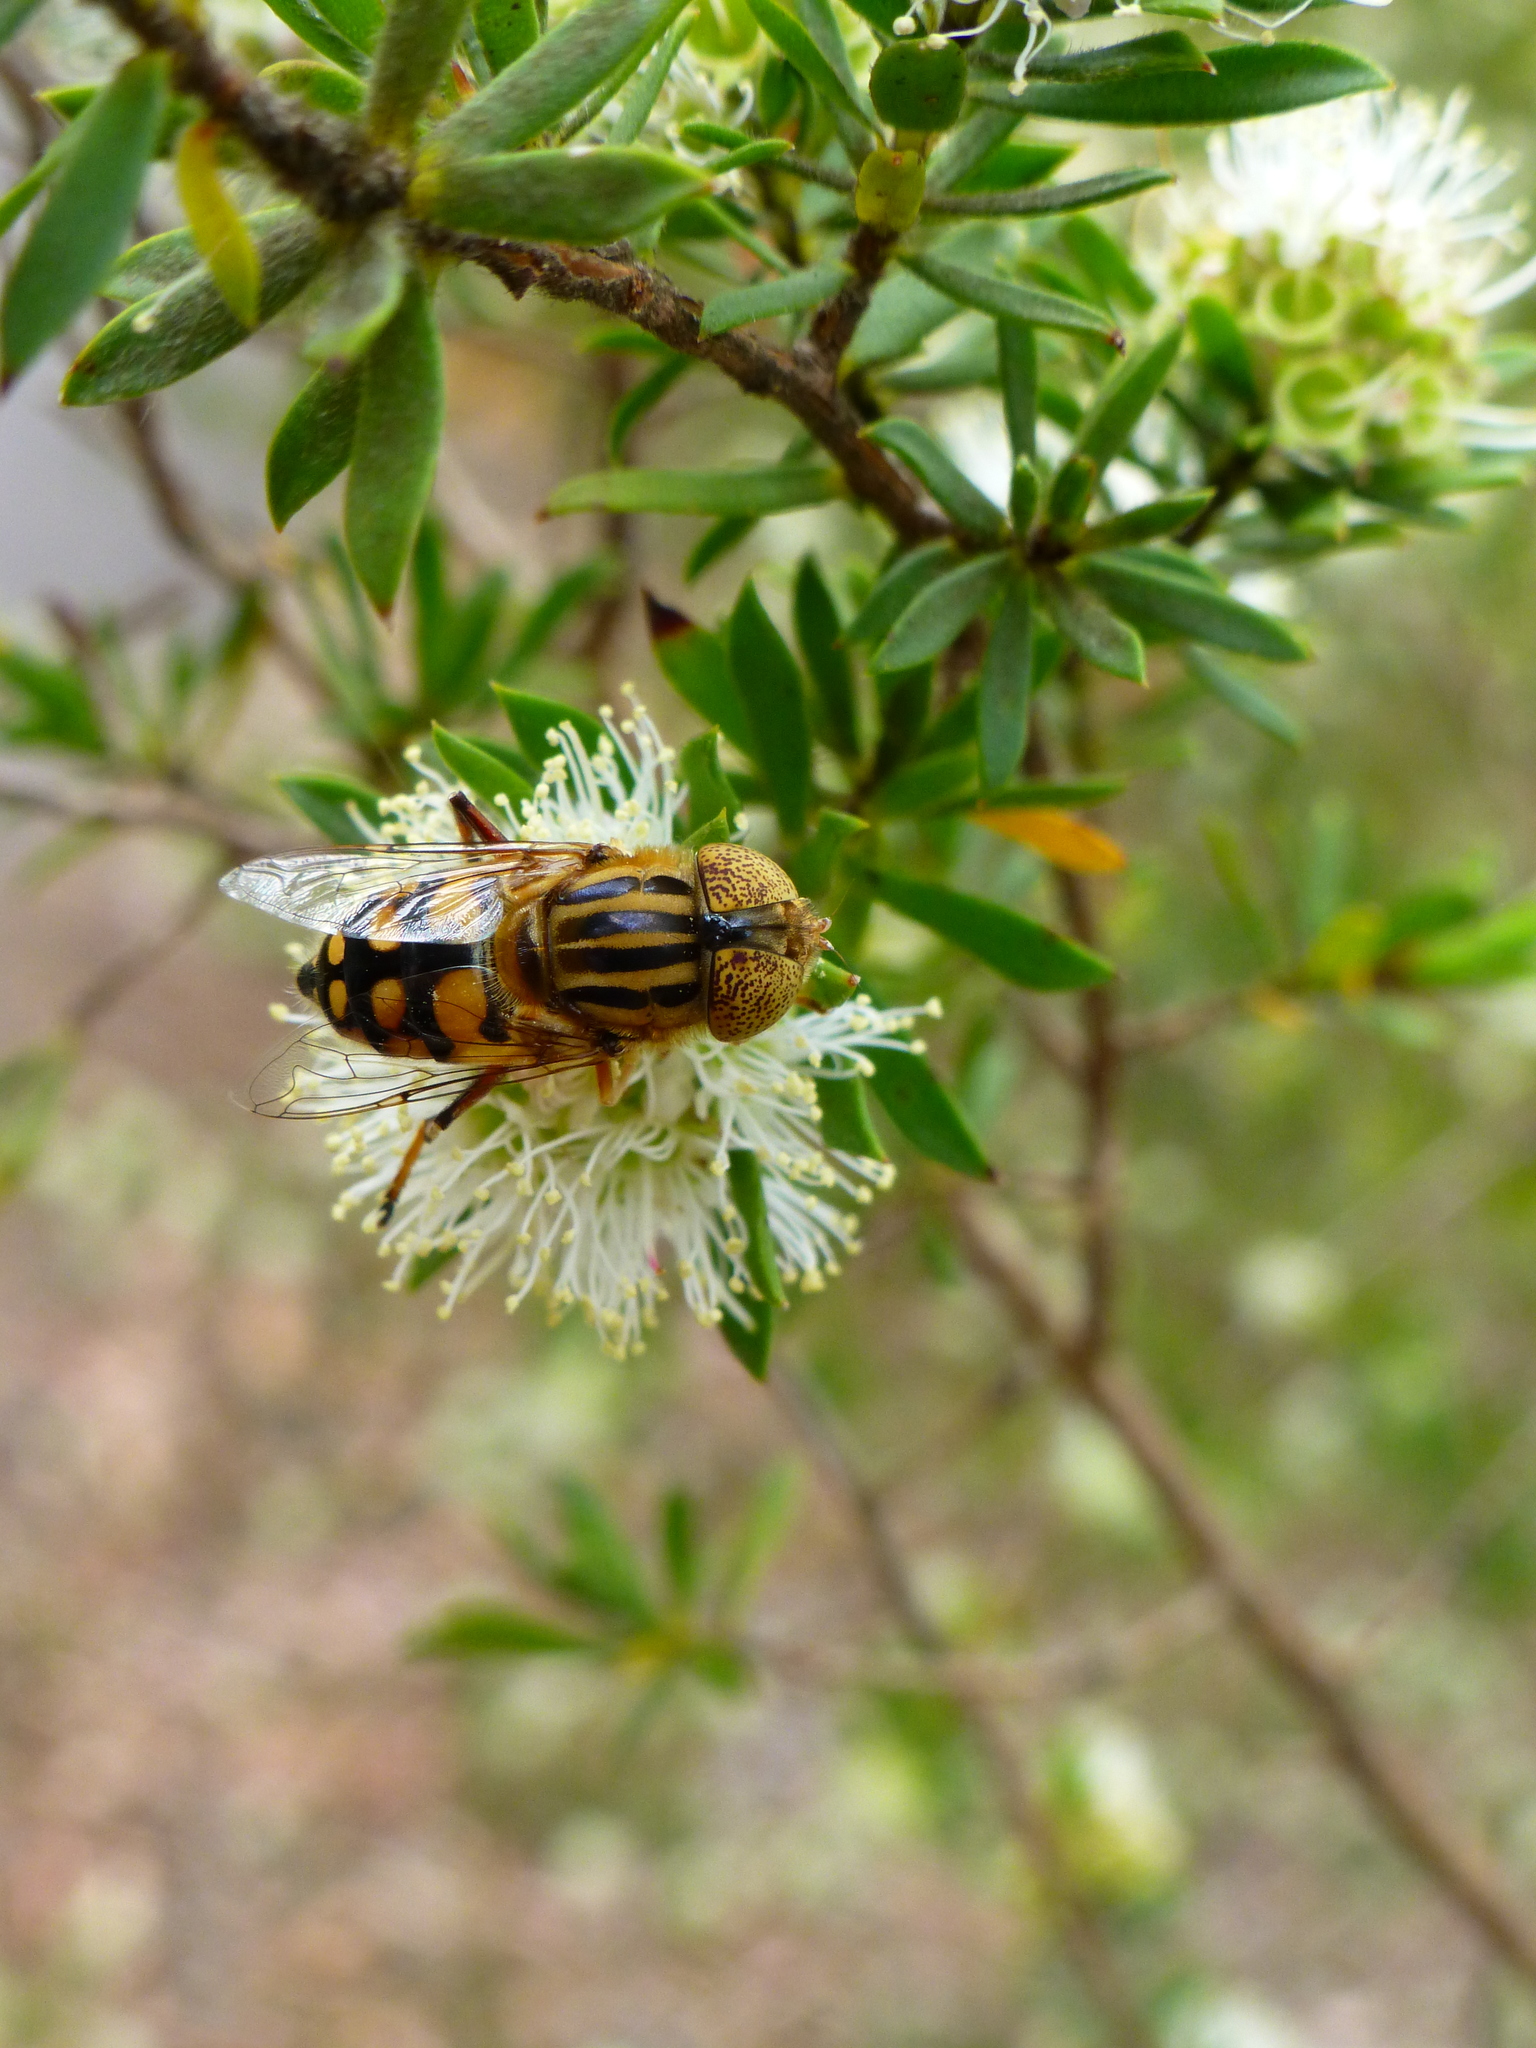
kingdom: Animalia
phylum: Arthropoda
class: Insecta
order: Diptera
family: Syrphidae
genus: Eristalinus
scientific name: Eristalinus punctulatus
